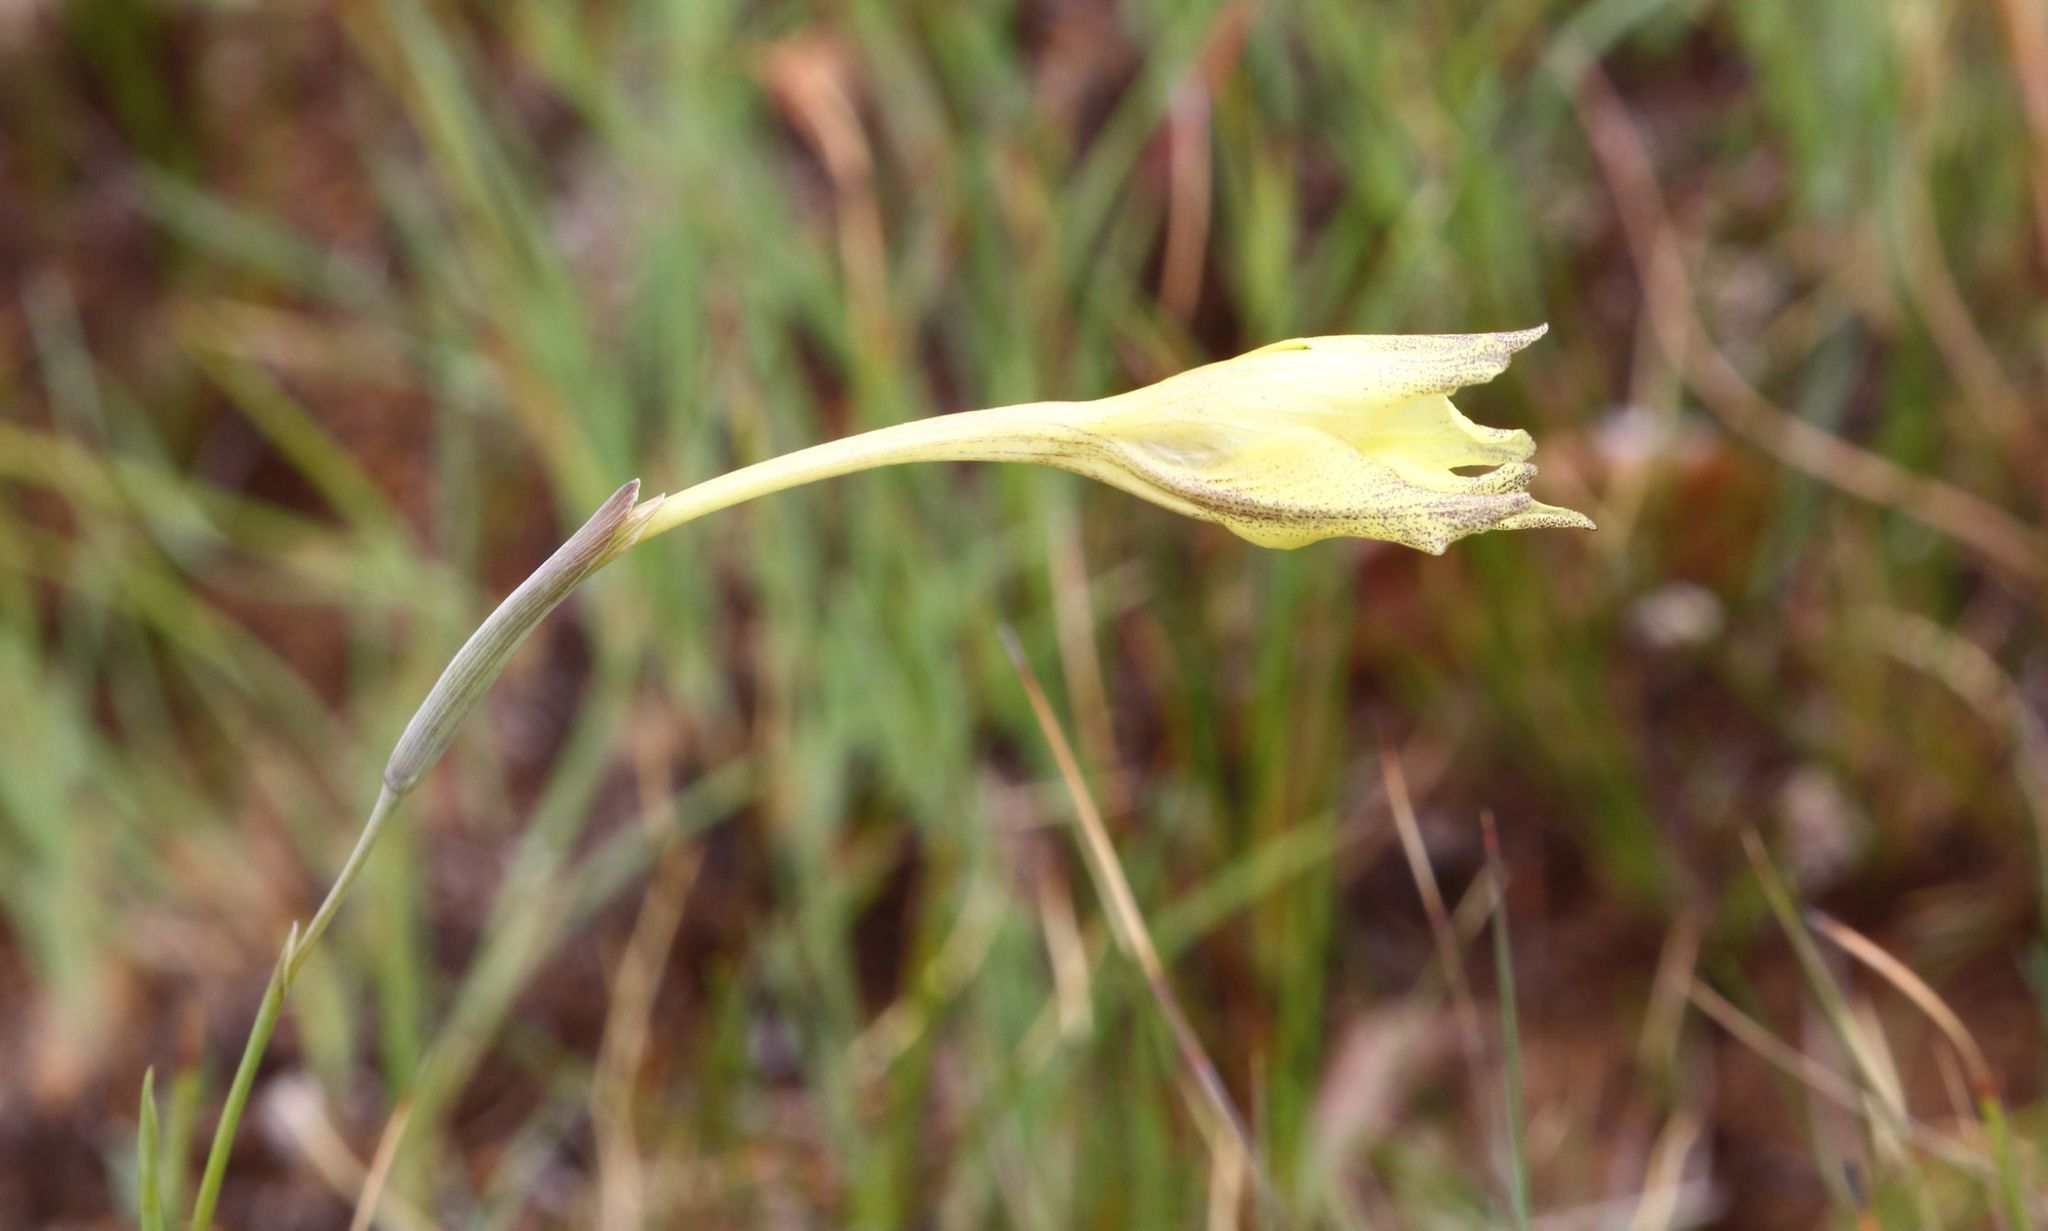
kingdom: Plantae
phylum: Tracheophyta
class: Liliopsida
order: Asparagales
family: Iridaceae
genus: Gladiolus
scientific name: Gladiolus longicollis
